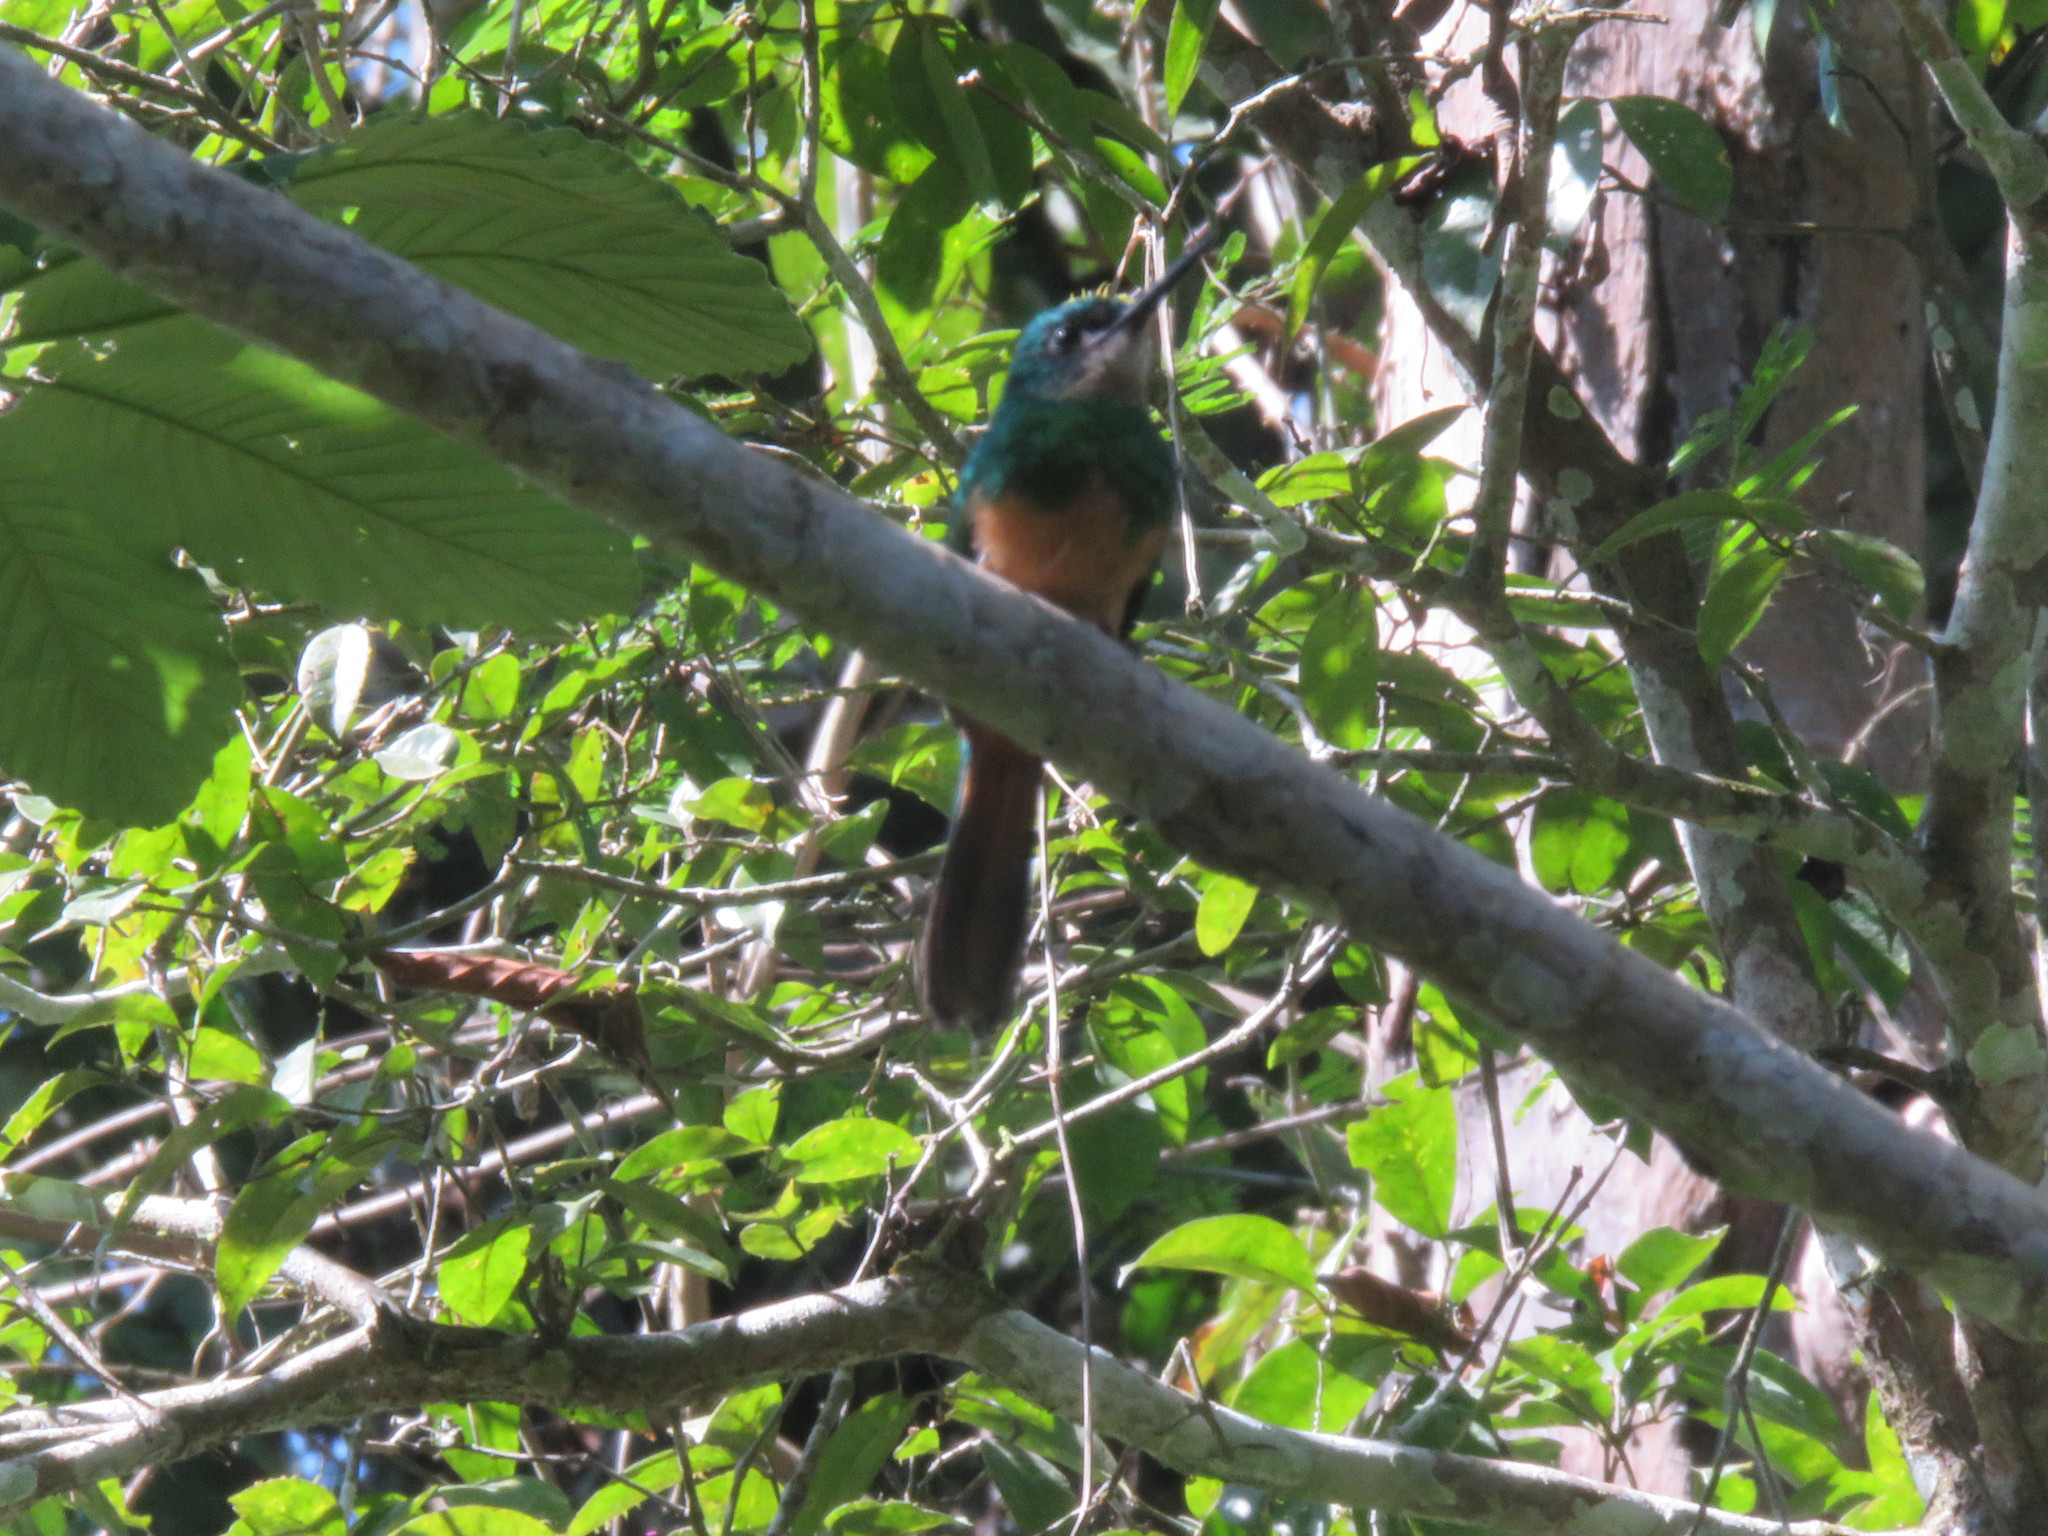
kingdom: Animalia
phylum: Chordata
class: Aves
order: Piciformes
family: Galbulidae
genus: Galbula
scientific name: Galbula ruficauda
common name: Rufous-tailed jacamar
